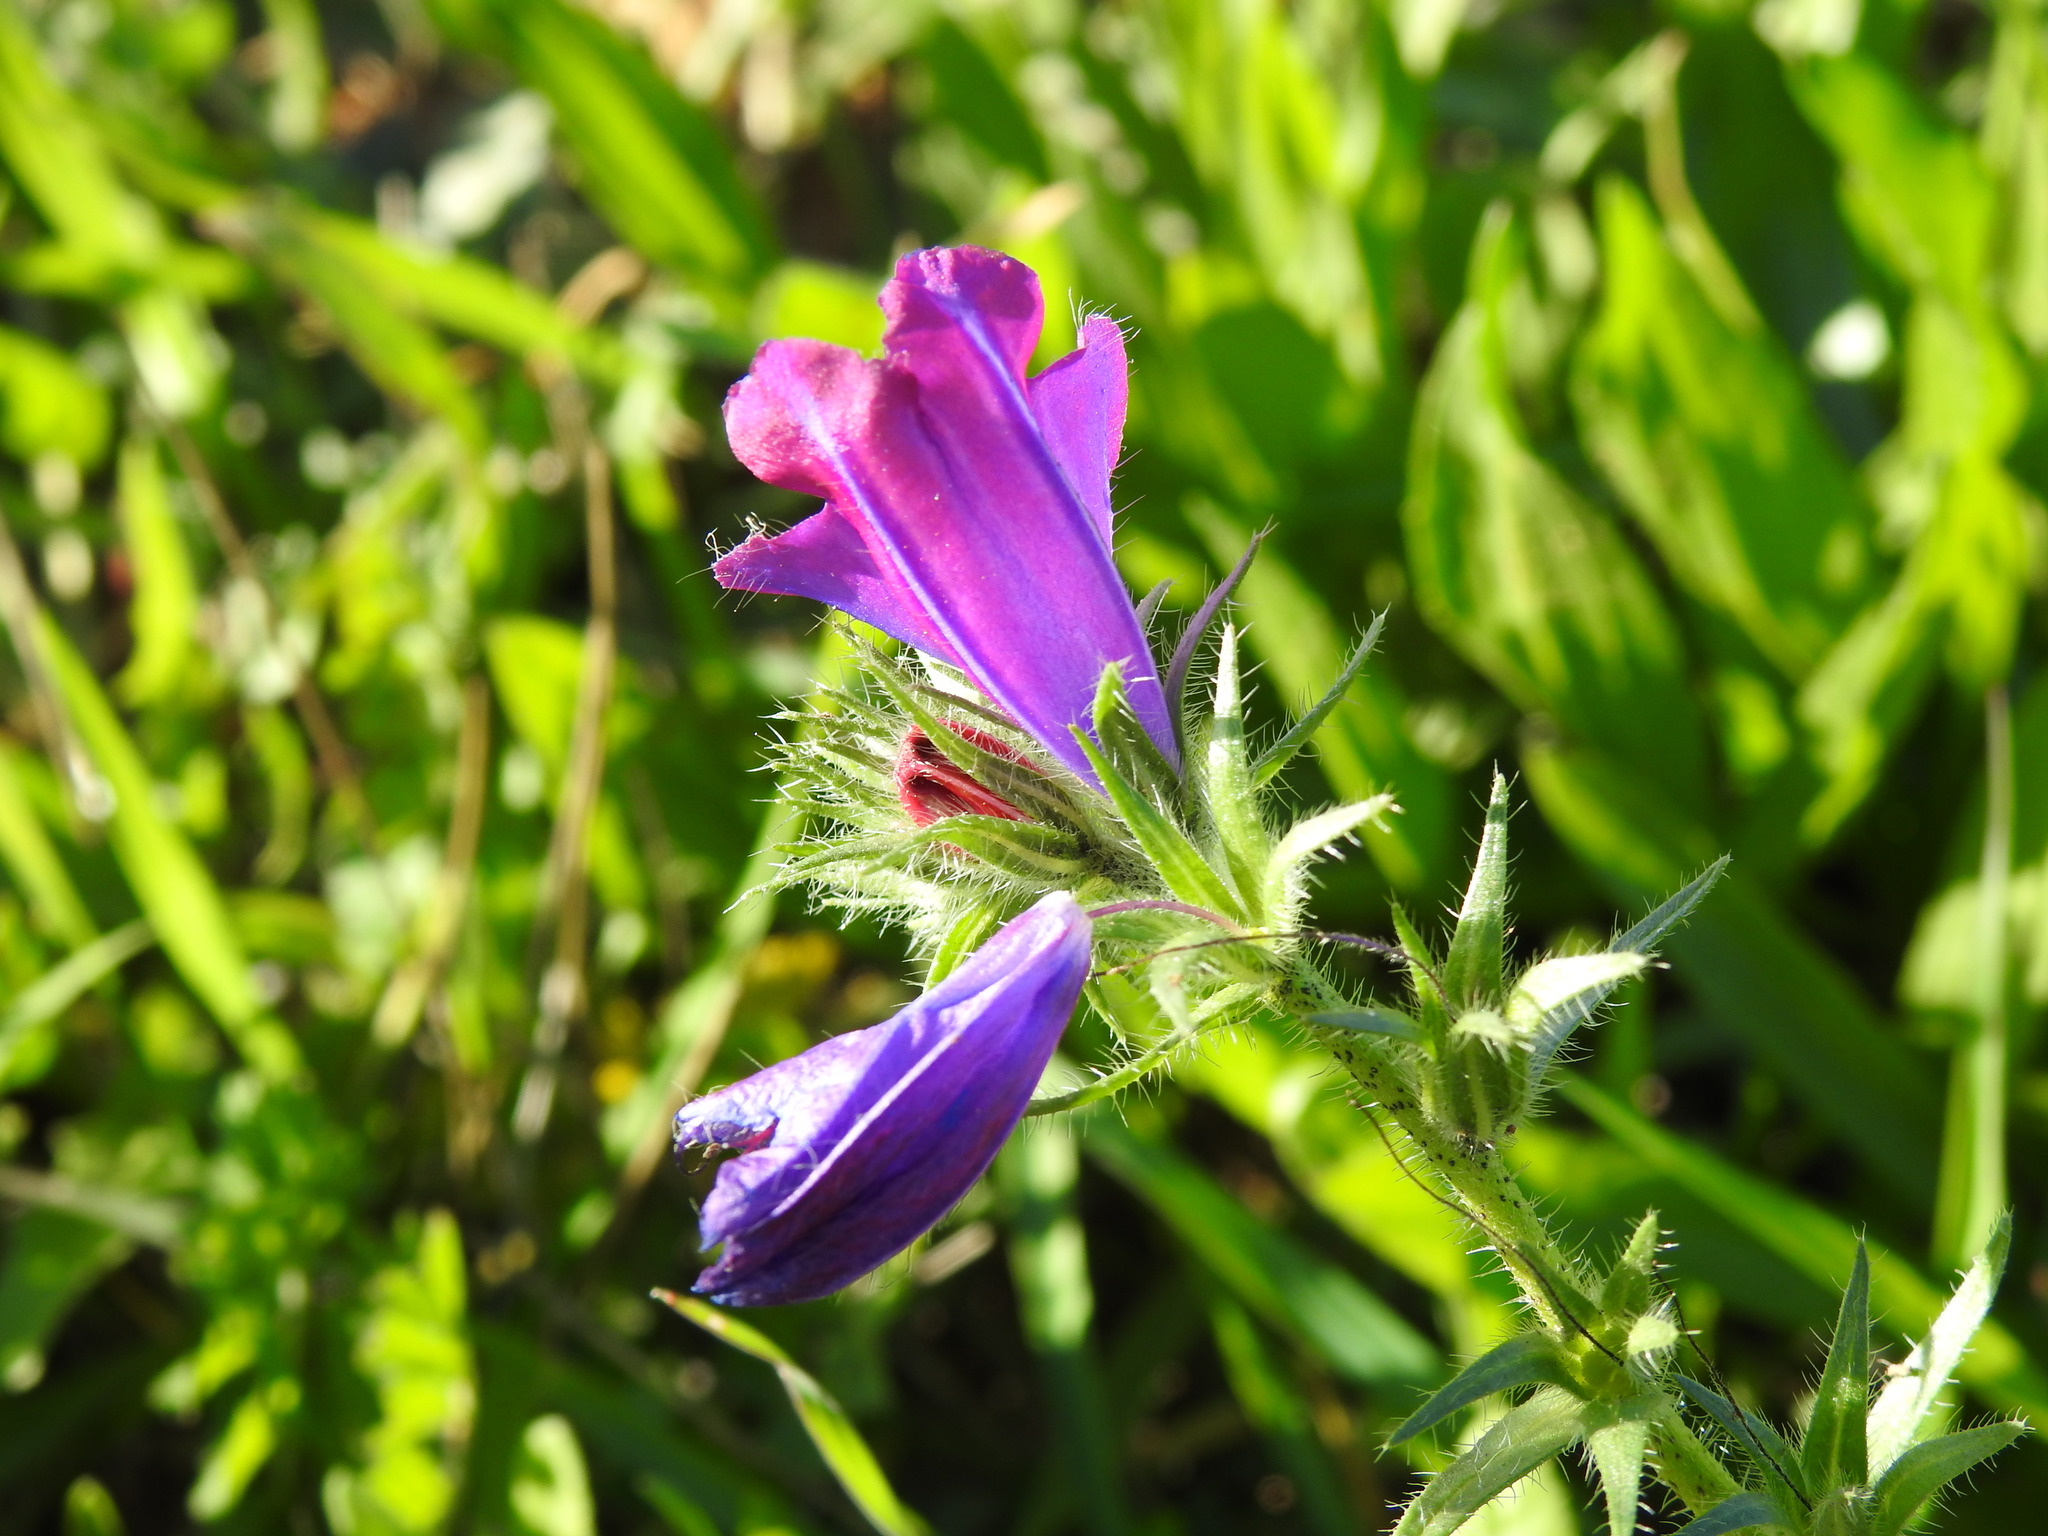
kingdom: Plantae
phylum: Tracheophyta
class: Magnoliopsida
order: Boraginales
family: Boraginaceae
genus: Echium
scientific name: Echium plantagineum
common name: Purple viper's-bugloss
